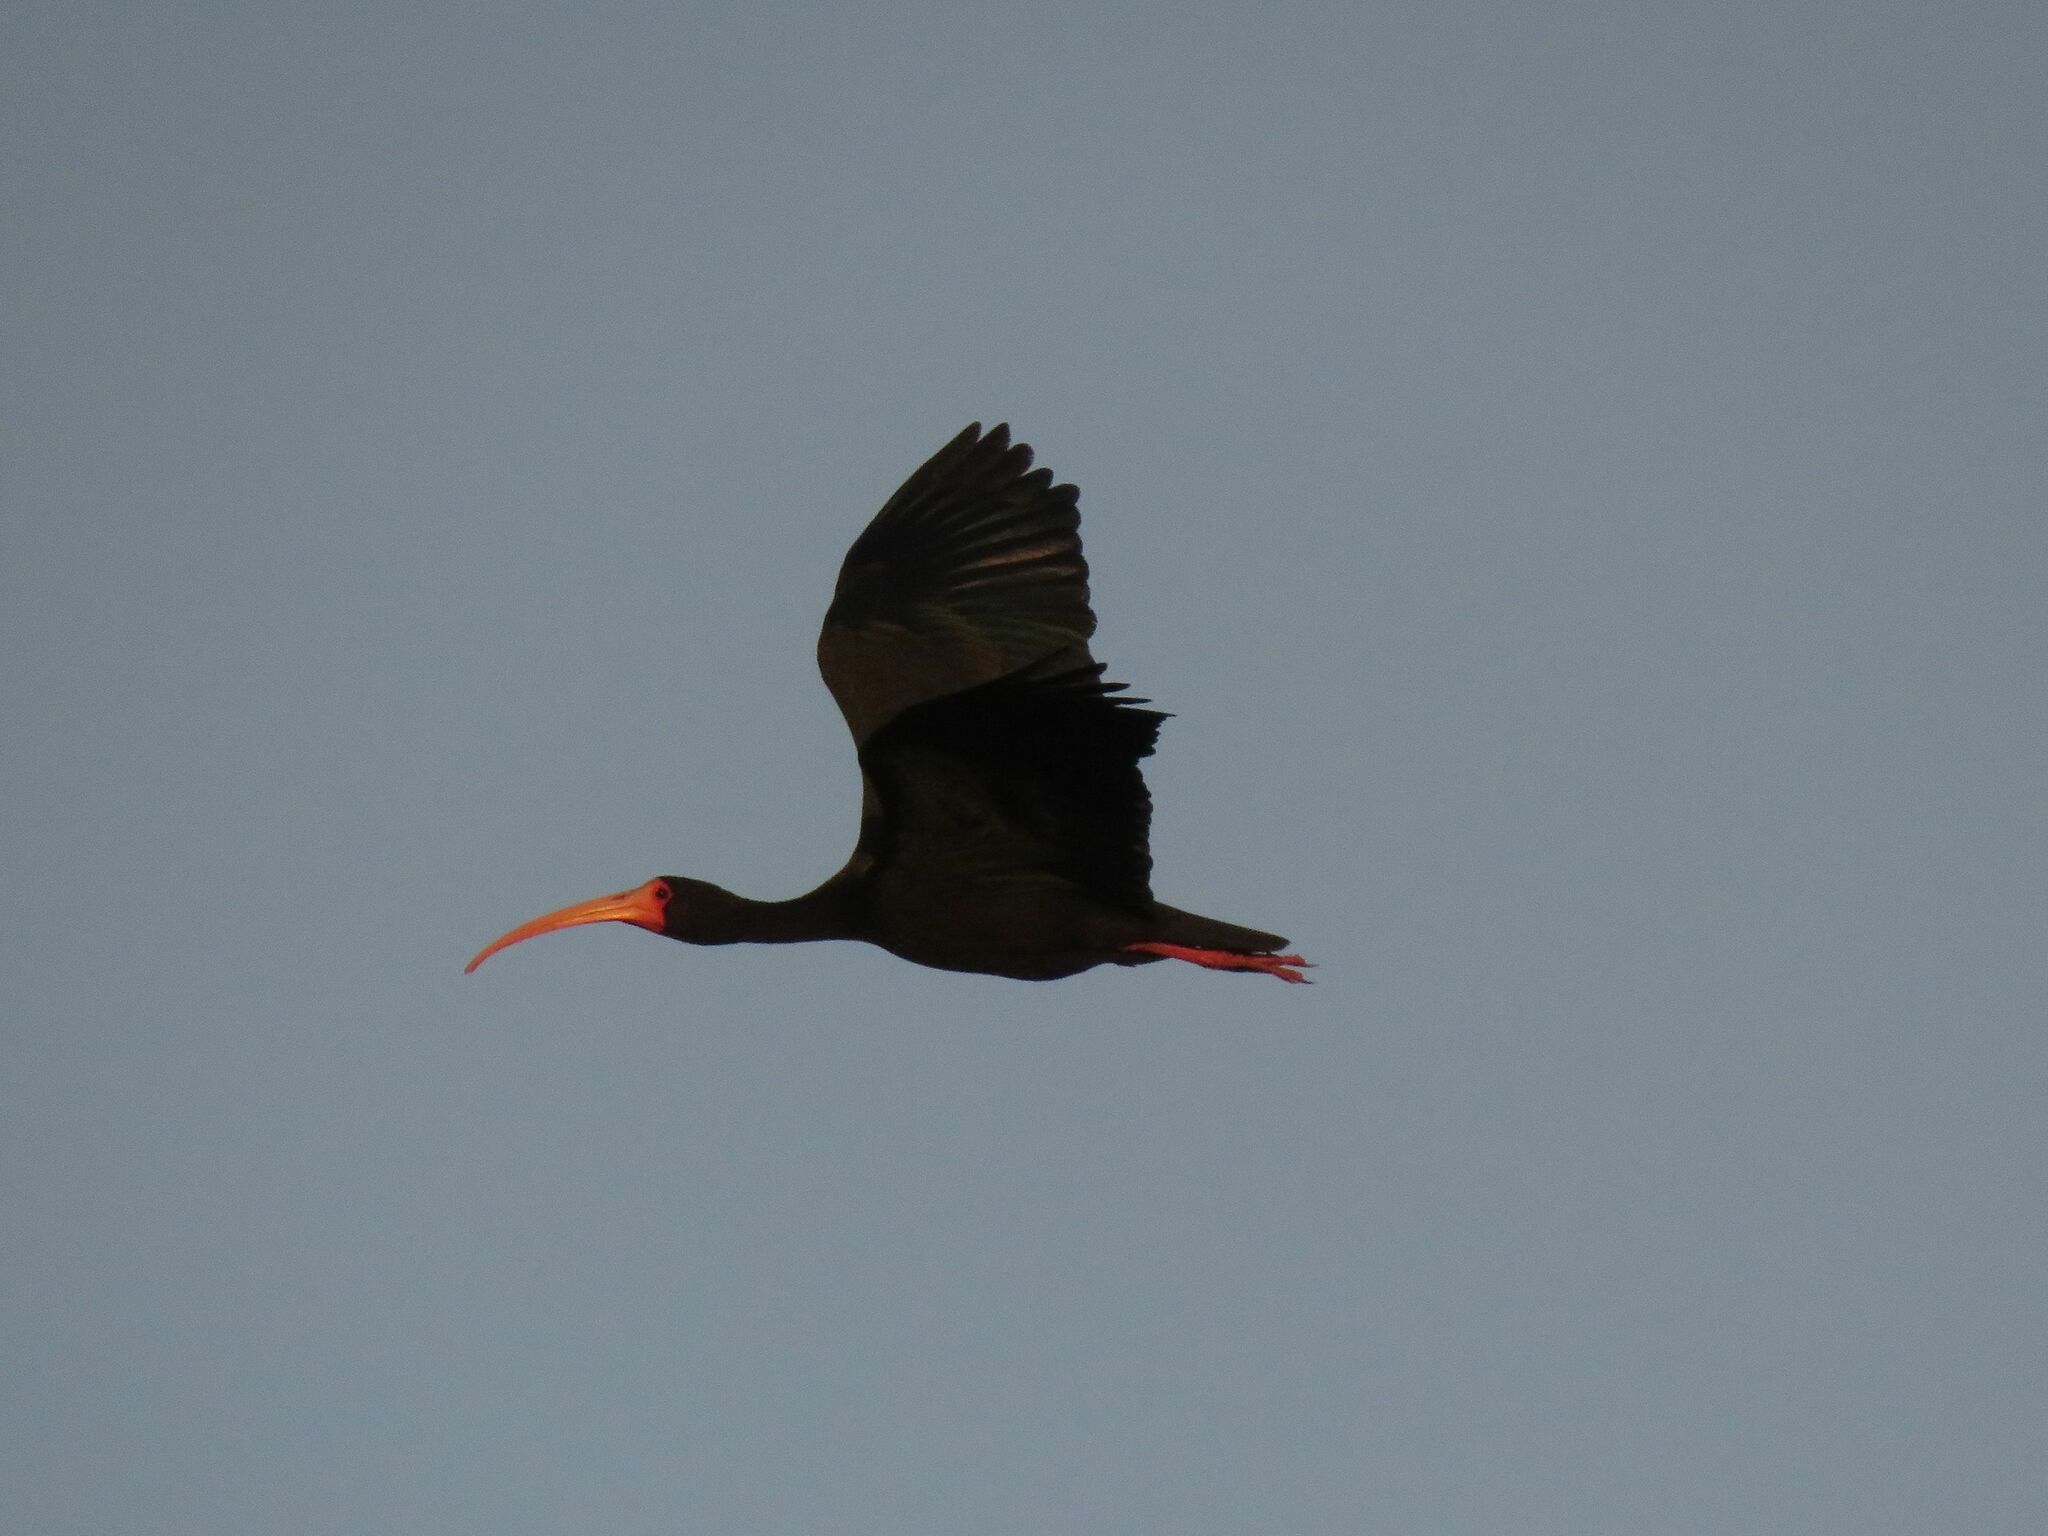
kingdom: Animalia
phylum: Chordata
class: Aves
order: Pelecaniformes
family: Threskiornithidae
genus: Phimosus
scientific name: Phimosus infuscatus
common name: Bare-faced ibis
